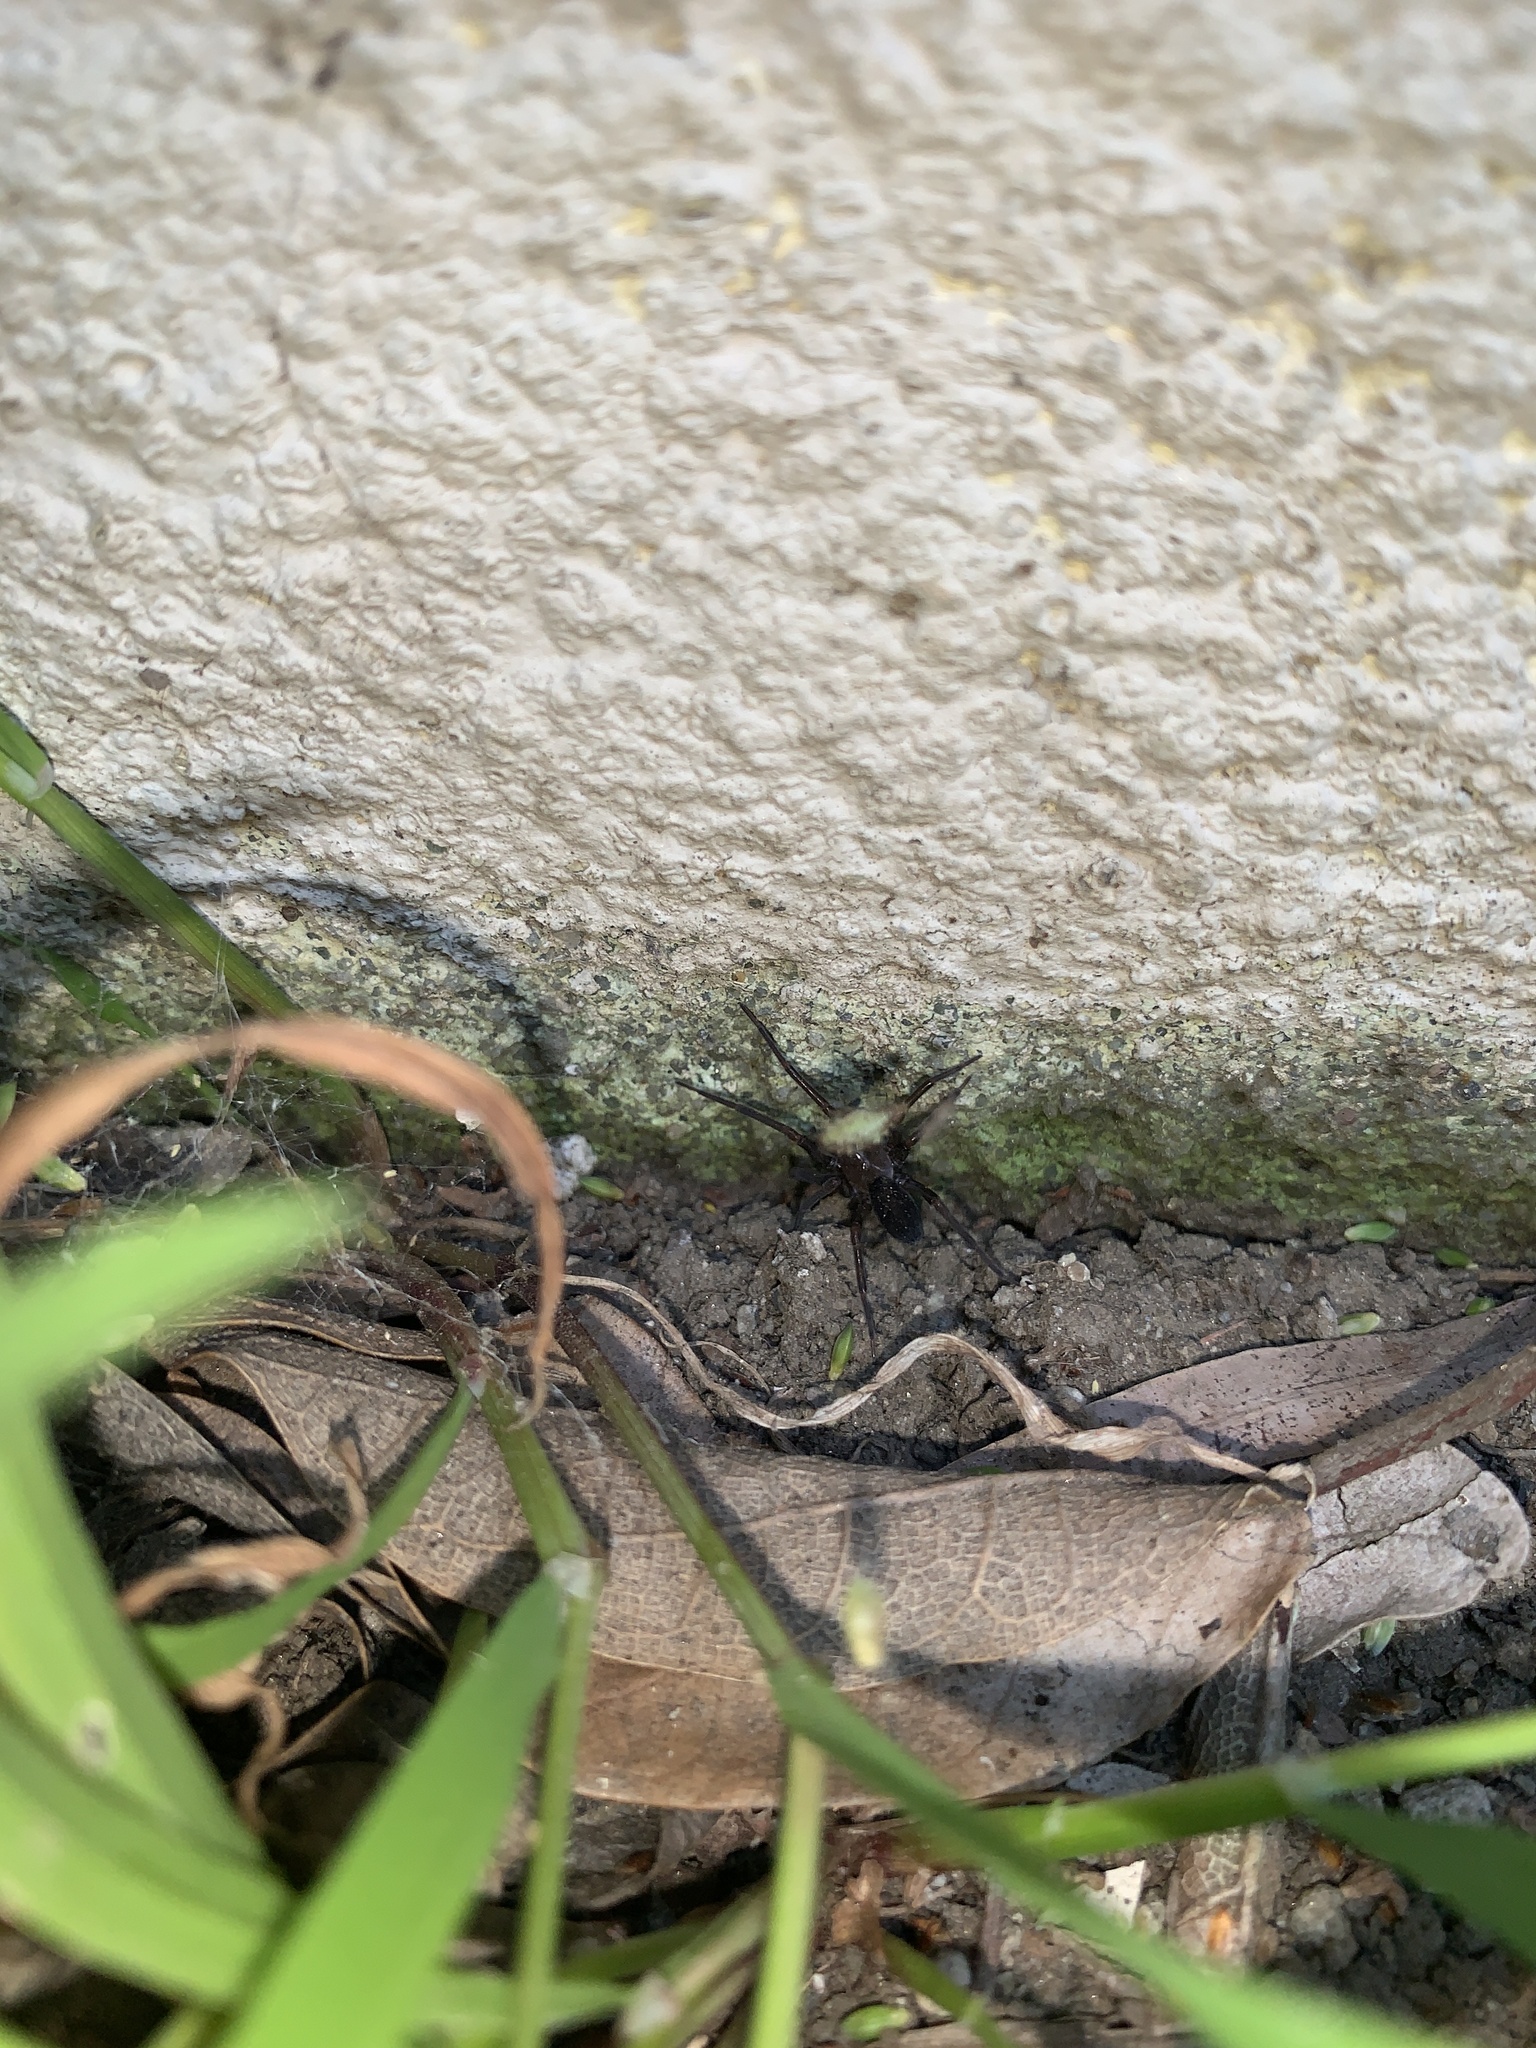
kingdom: Animalia
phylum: Arthropoda
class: Arachnida
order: Araneae
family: Desidae
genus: Metaltella
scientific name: Metaltella simoni
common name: Cribellate spider
